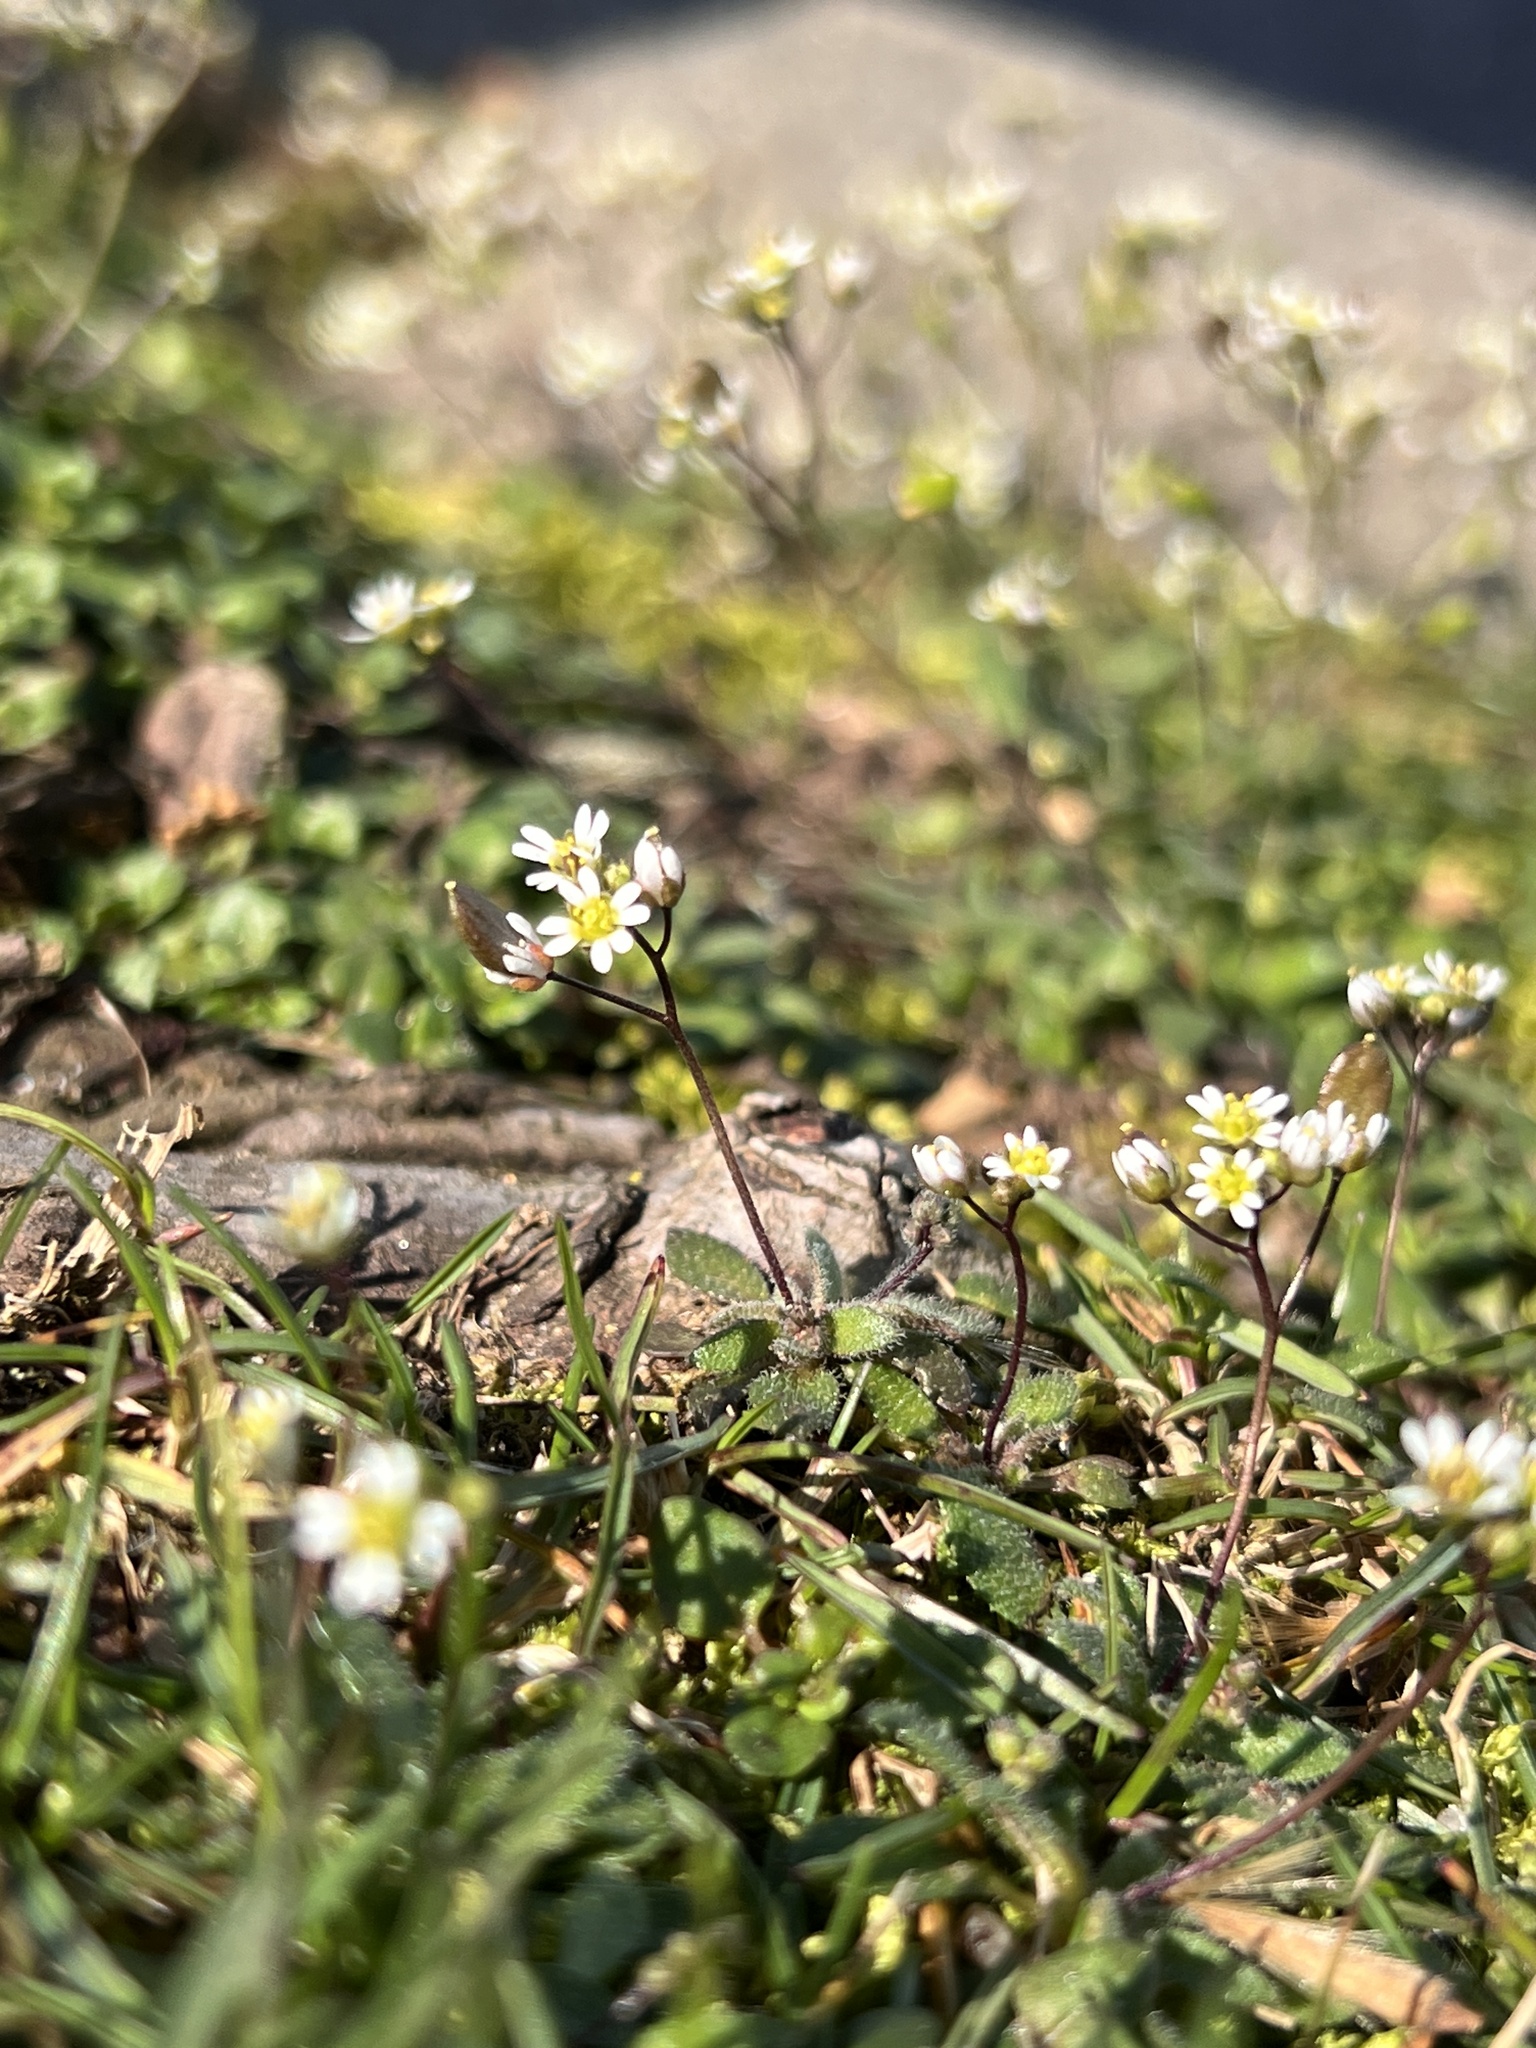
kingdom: Plantae
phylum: Tracheophyta
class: Magnoliopsida
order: Brassicales
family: Brassicaceae
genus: Draba
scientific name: Draba verna
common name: Spring draba
